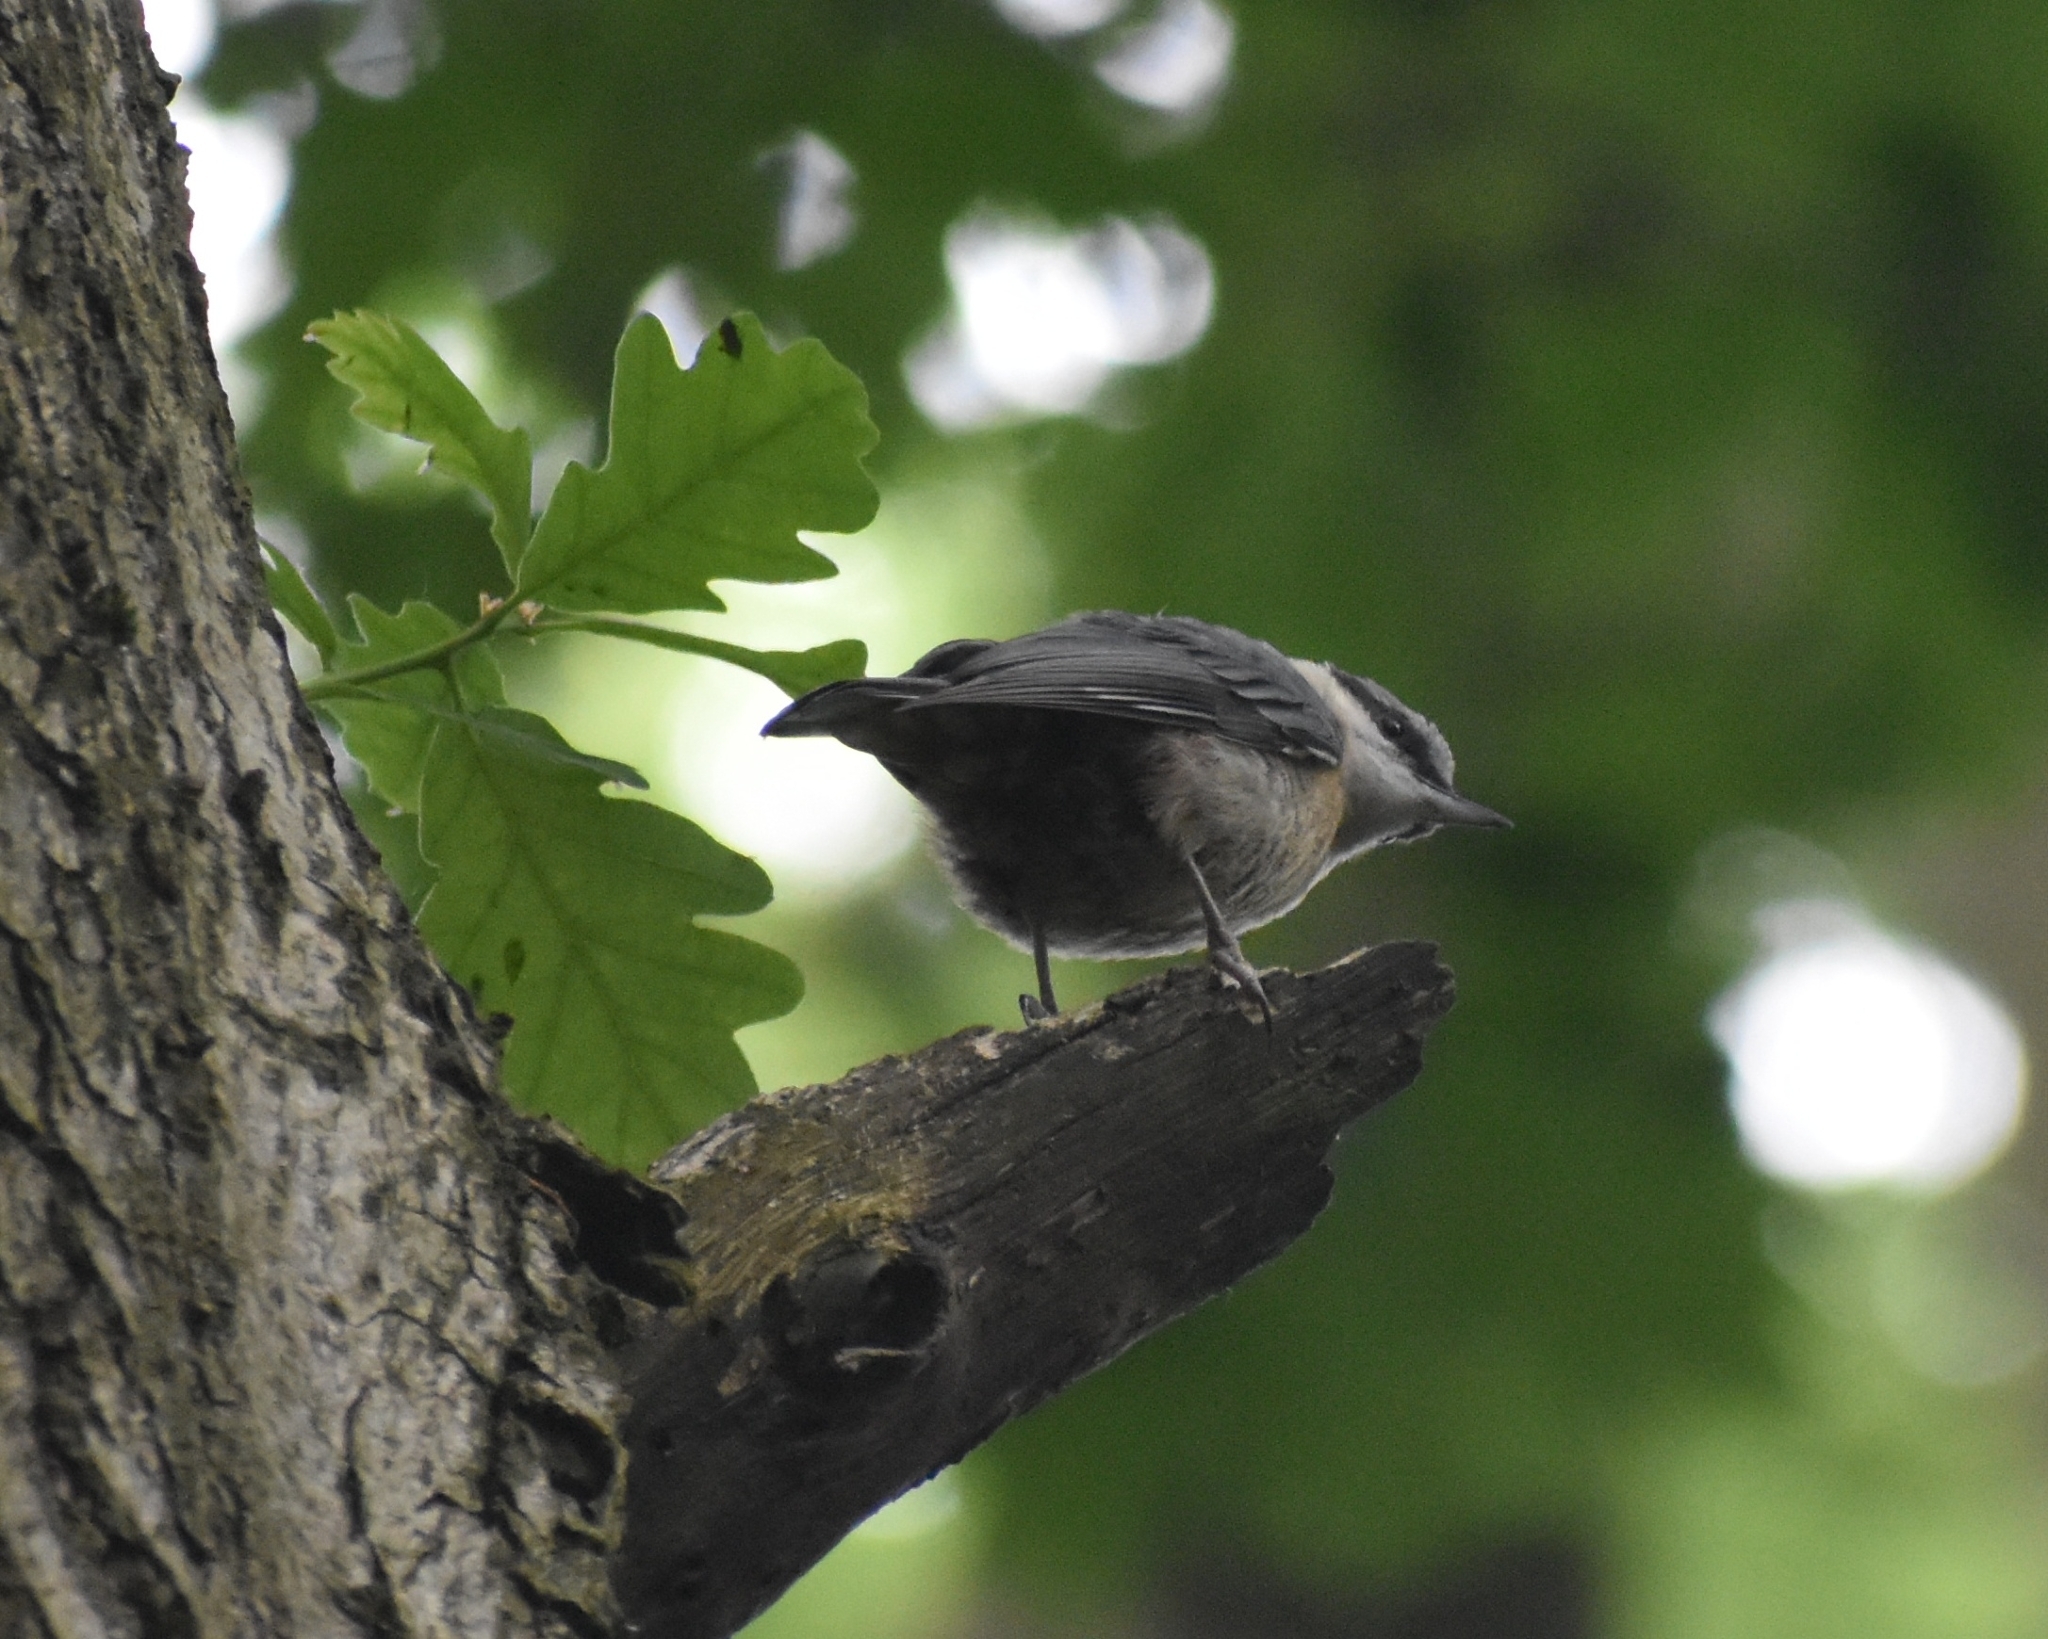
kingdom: Animalia
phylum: Chordata
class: Aves
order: Passeriformes
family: Sittidae
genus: Sitta
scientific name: Sitta europaea
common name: Eurasian nuthatch
